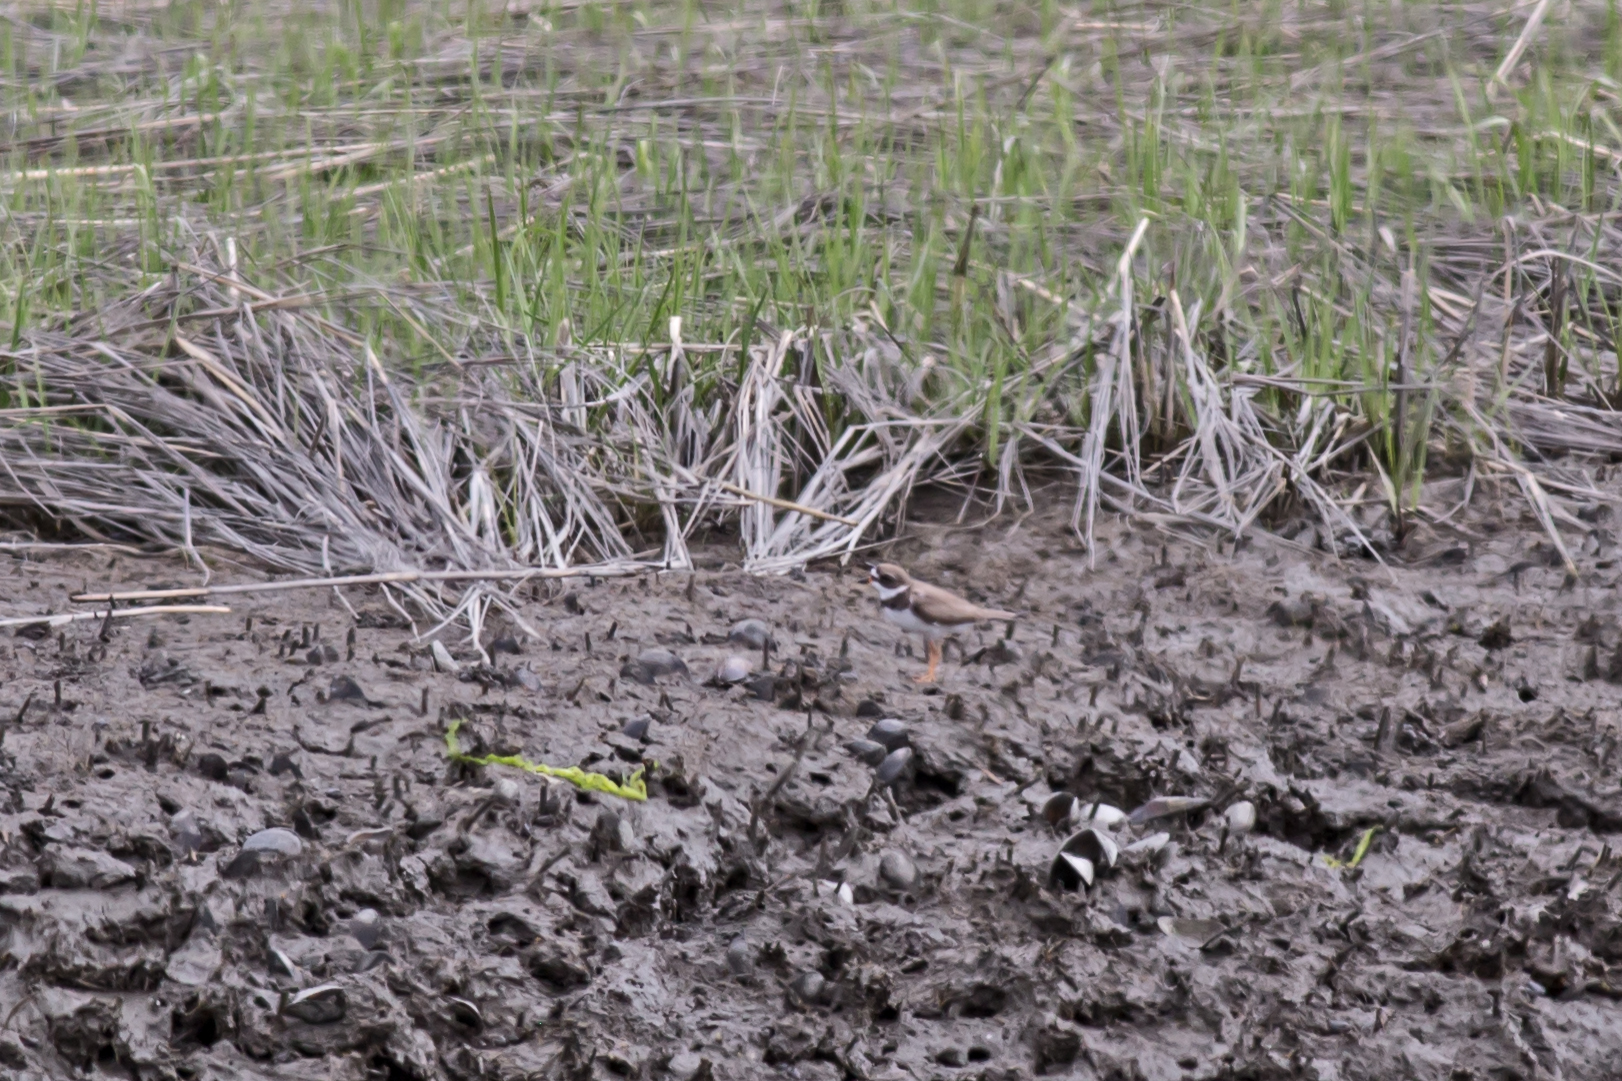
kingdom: Animalia
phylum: Chordata
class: Aves
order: Charadriiformes
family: Charadriidae
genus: Charadrius
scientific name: Charadrius semipalmatus
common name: Semipalmated plover
